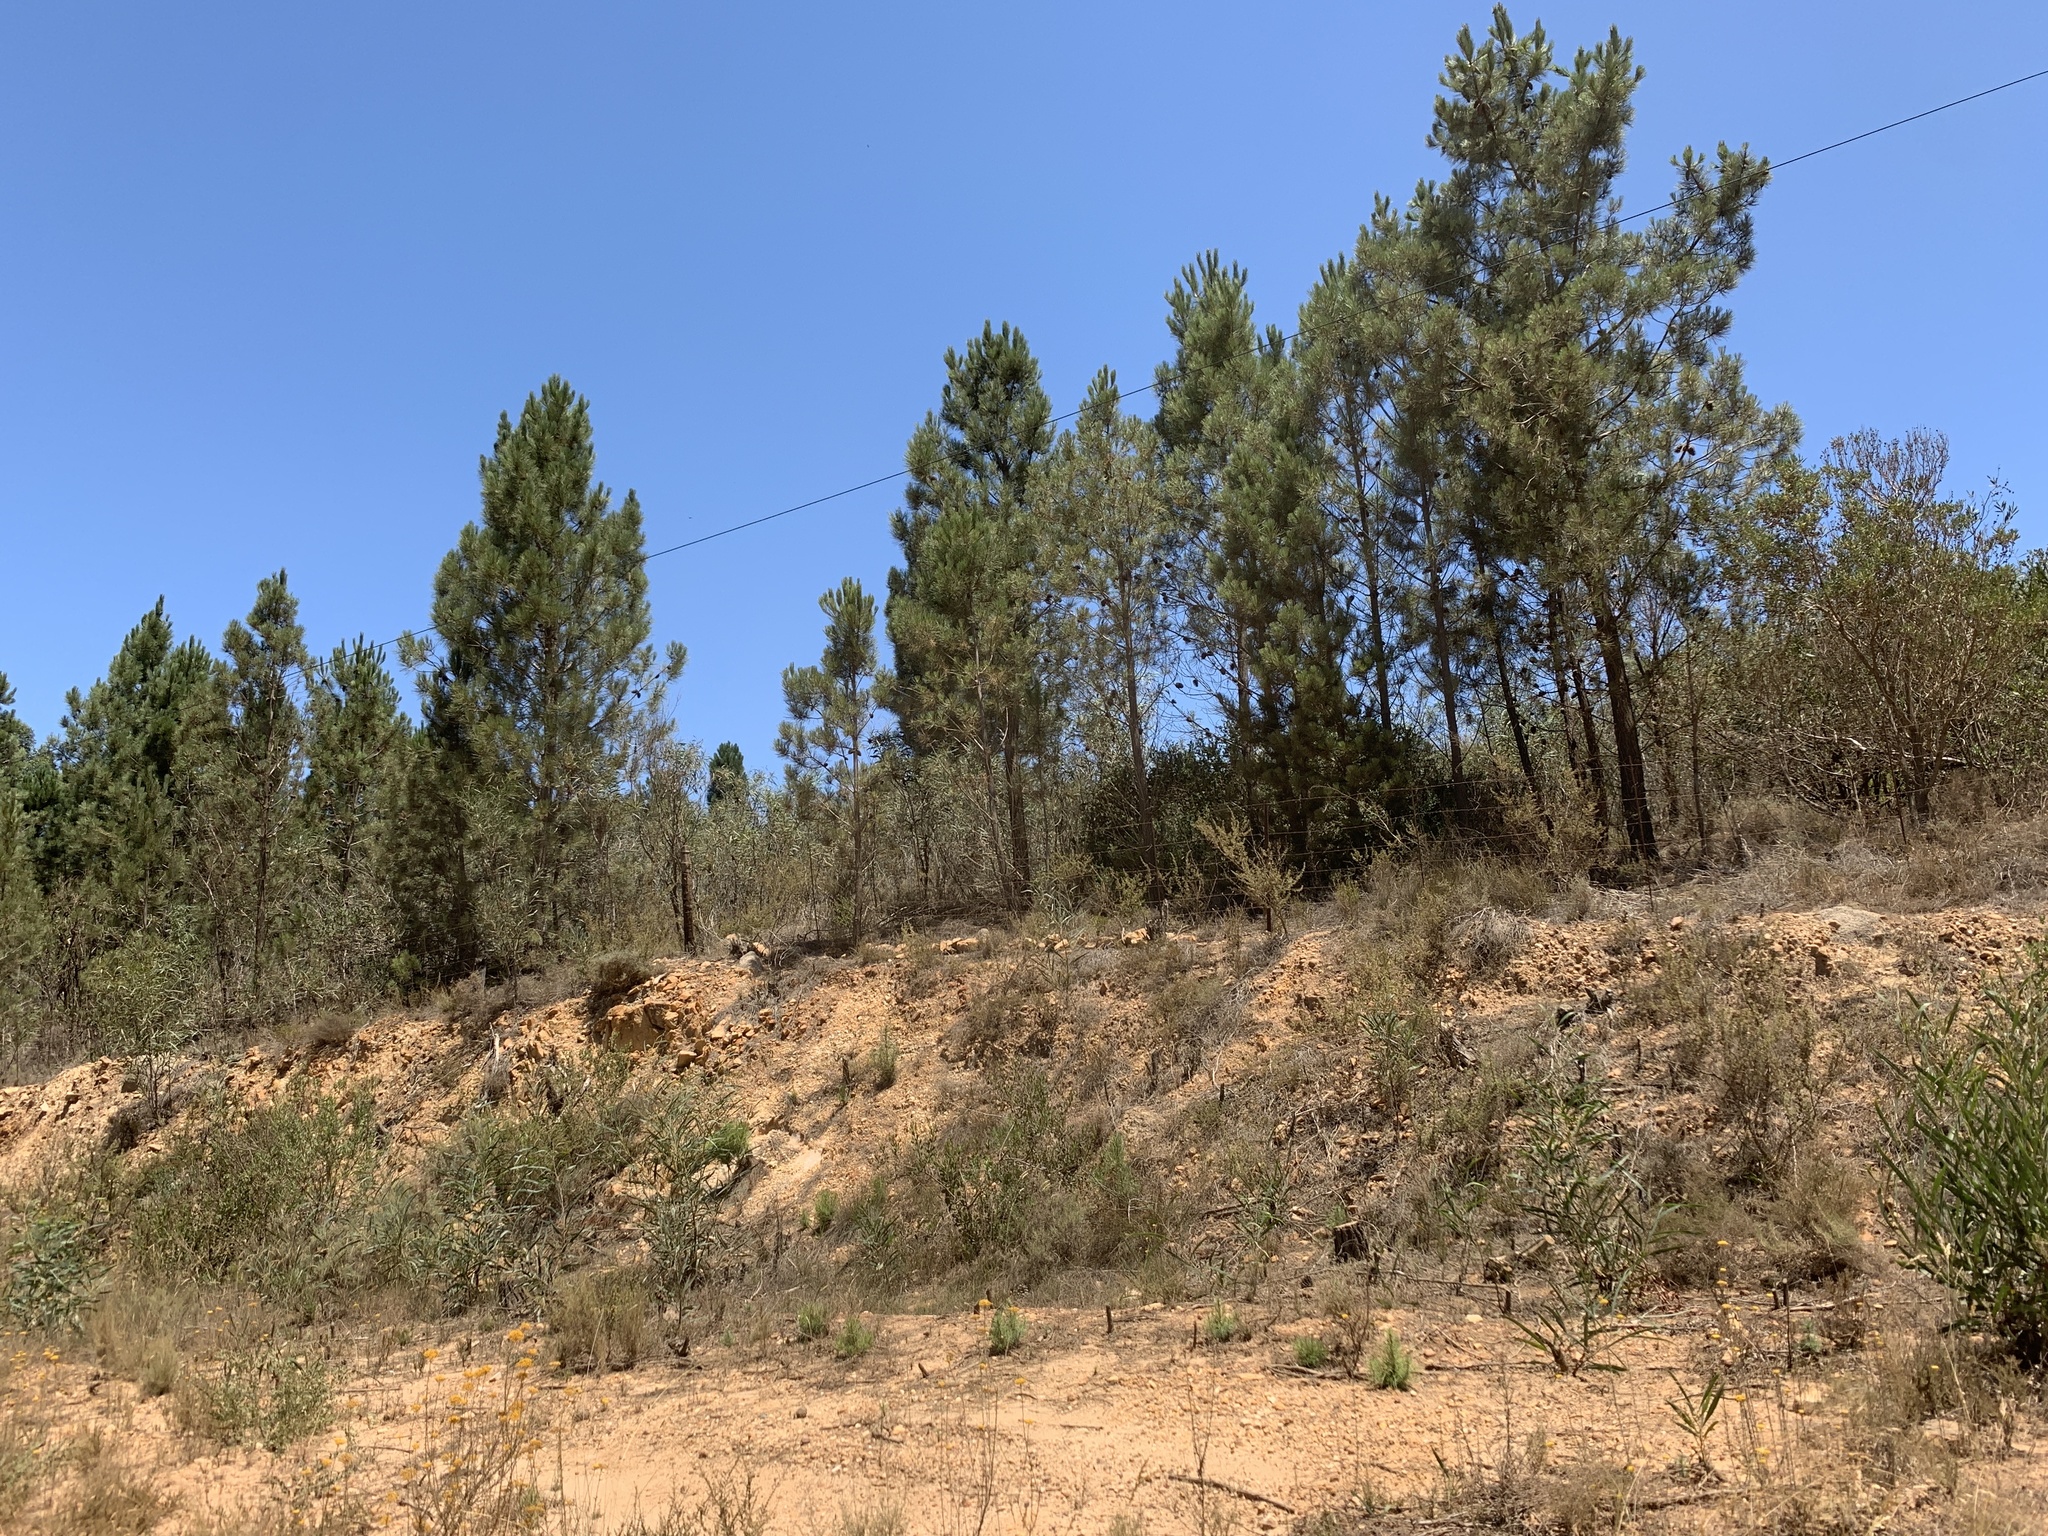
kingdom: Plantae
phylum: Tracheophyta
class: Pinopsida
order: Pinales
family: Pinaceae
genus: Pinus
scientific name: Pinus pinaster
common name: Maritime pine
